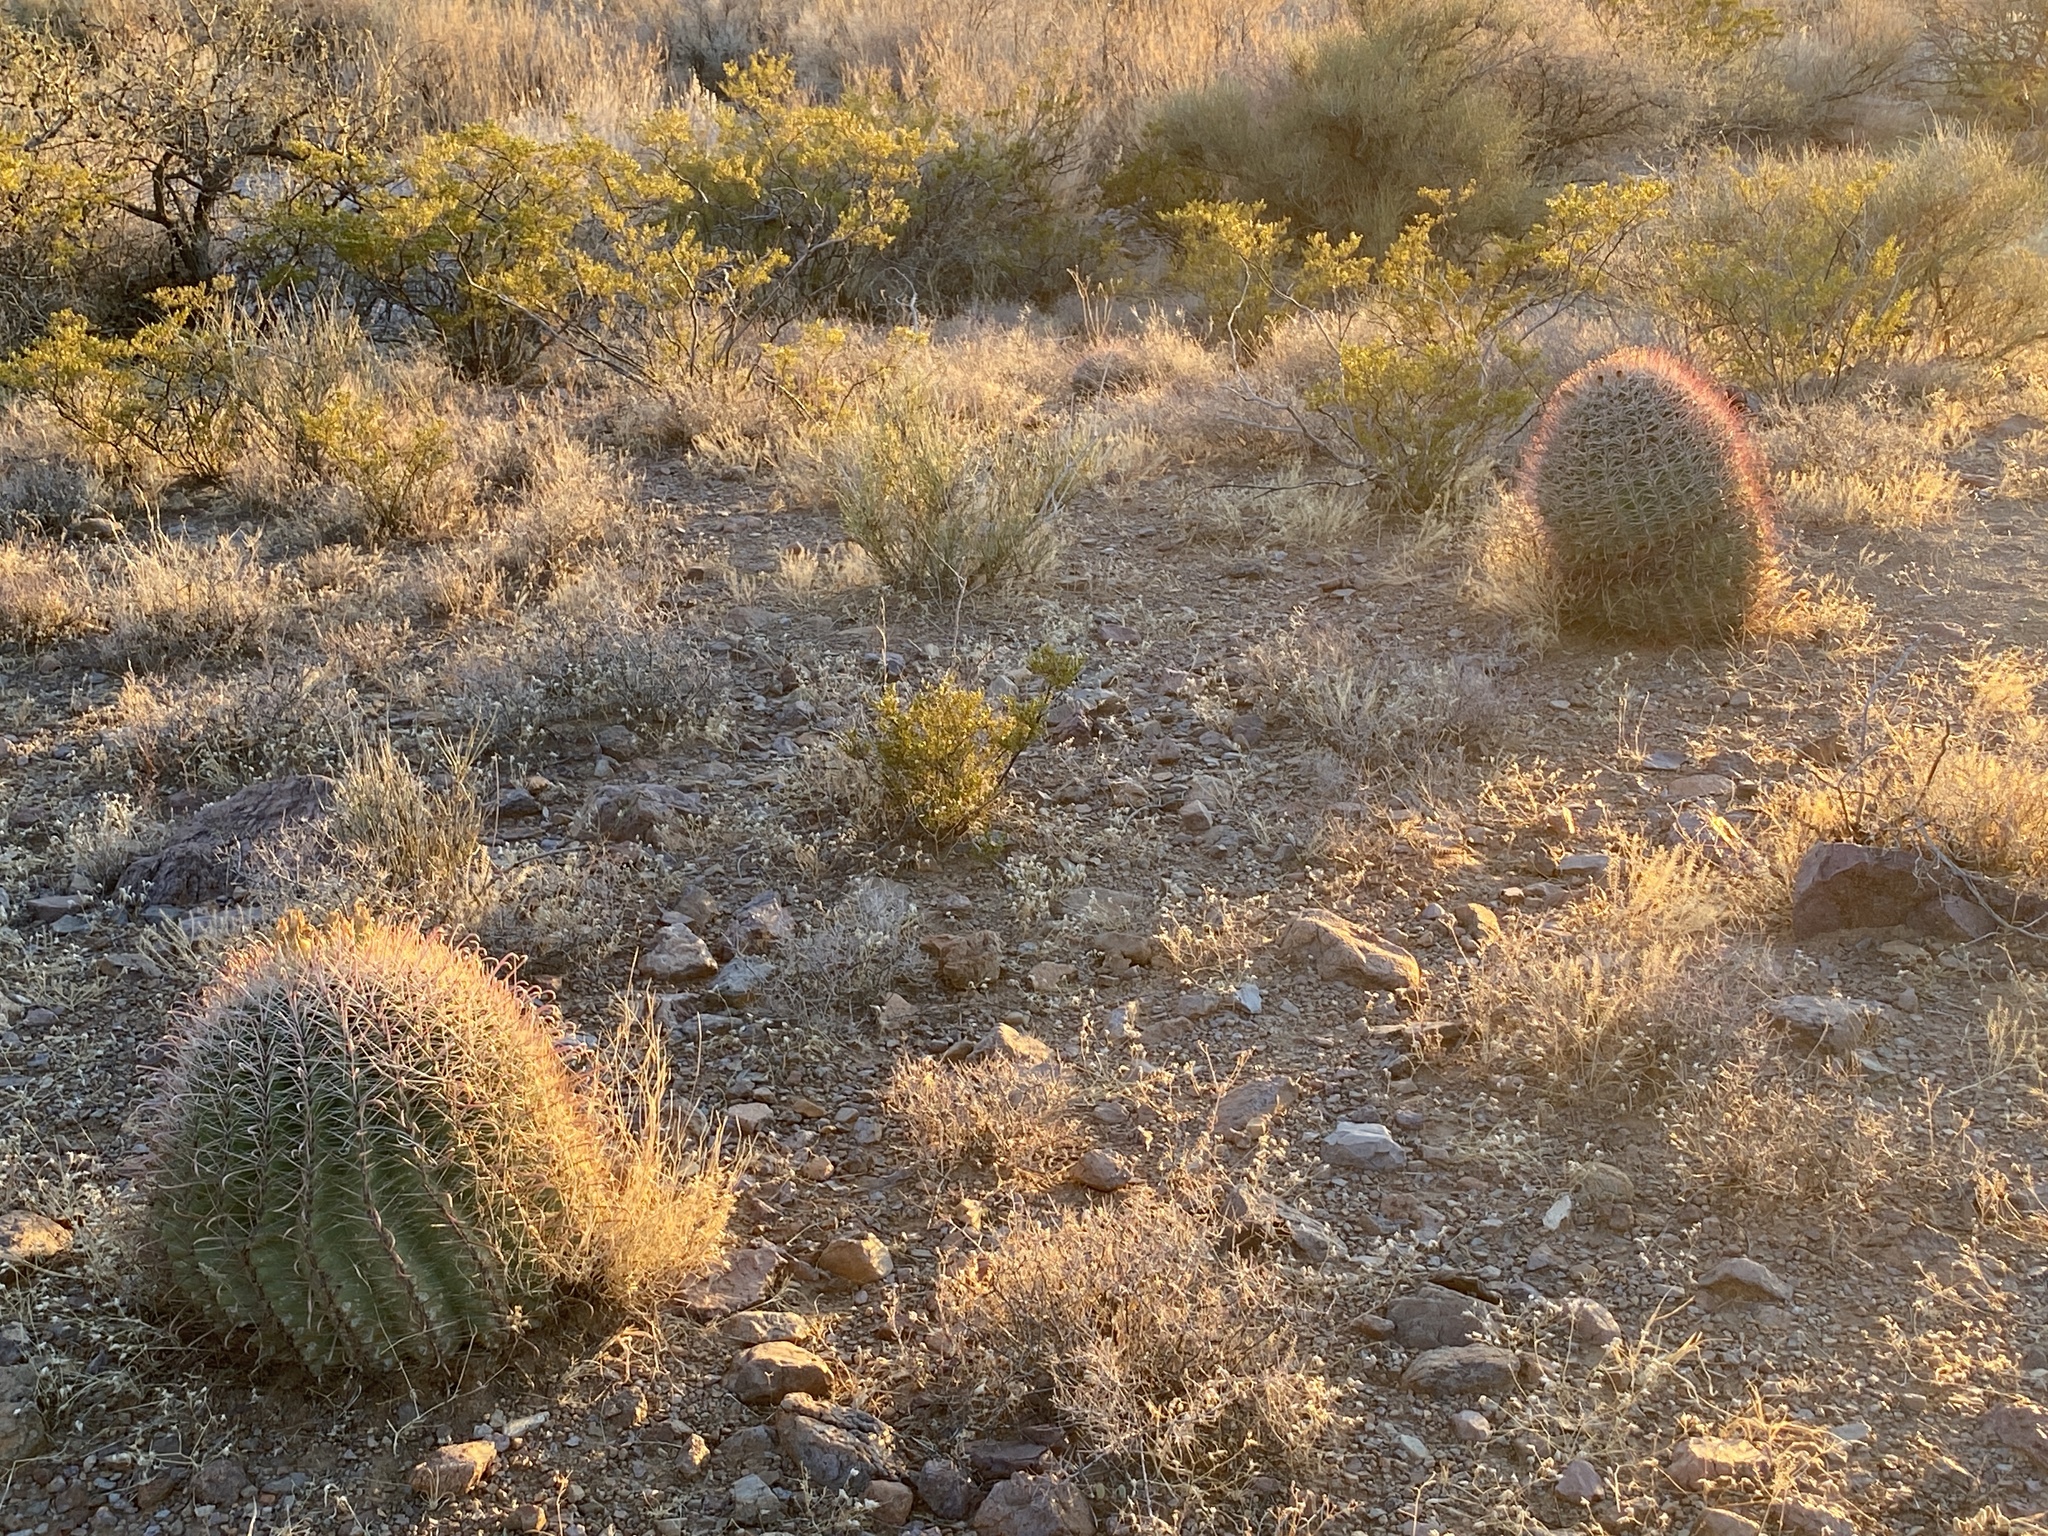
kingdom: Plantae
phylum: Tracheophyta
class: Magnoliopsida
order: Caryophyllales
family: Cactaceae
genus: Ferocactus
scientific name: Ferocactus wislizeni
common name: Candy barrel cactus
